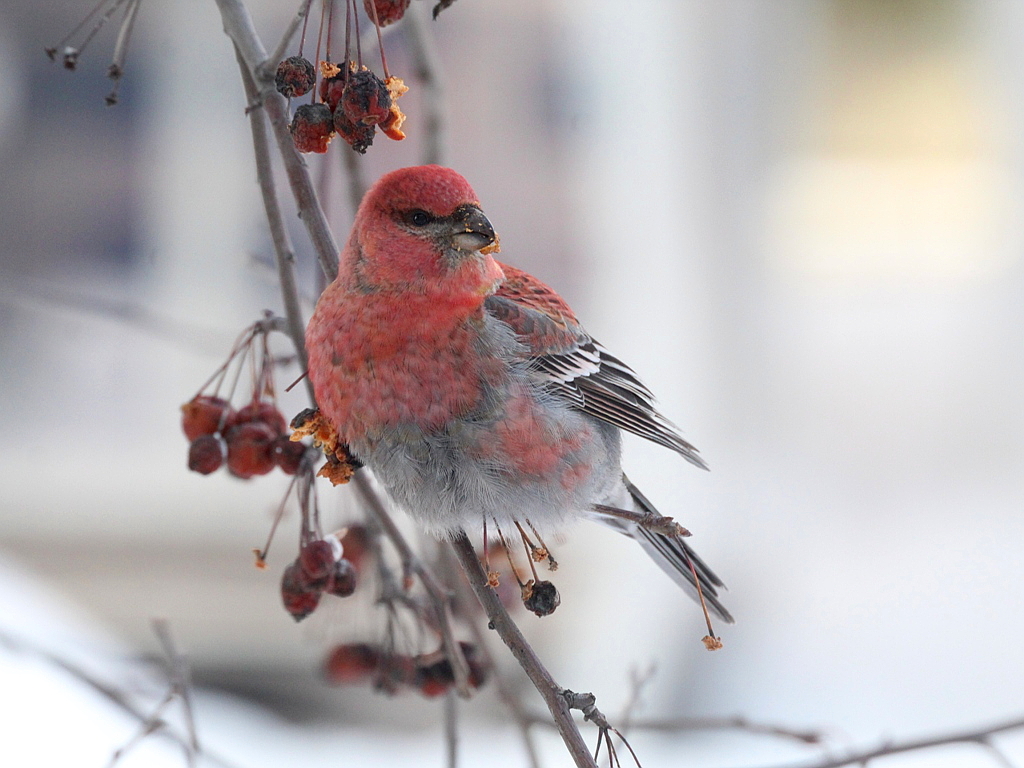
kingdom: Animalia
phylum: Chordata
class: Aves
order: Passeriformes
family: Fringillidae
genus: Pinicola
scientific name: Pinicola enucleator
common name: Pine grosbeak
